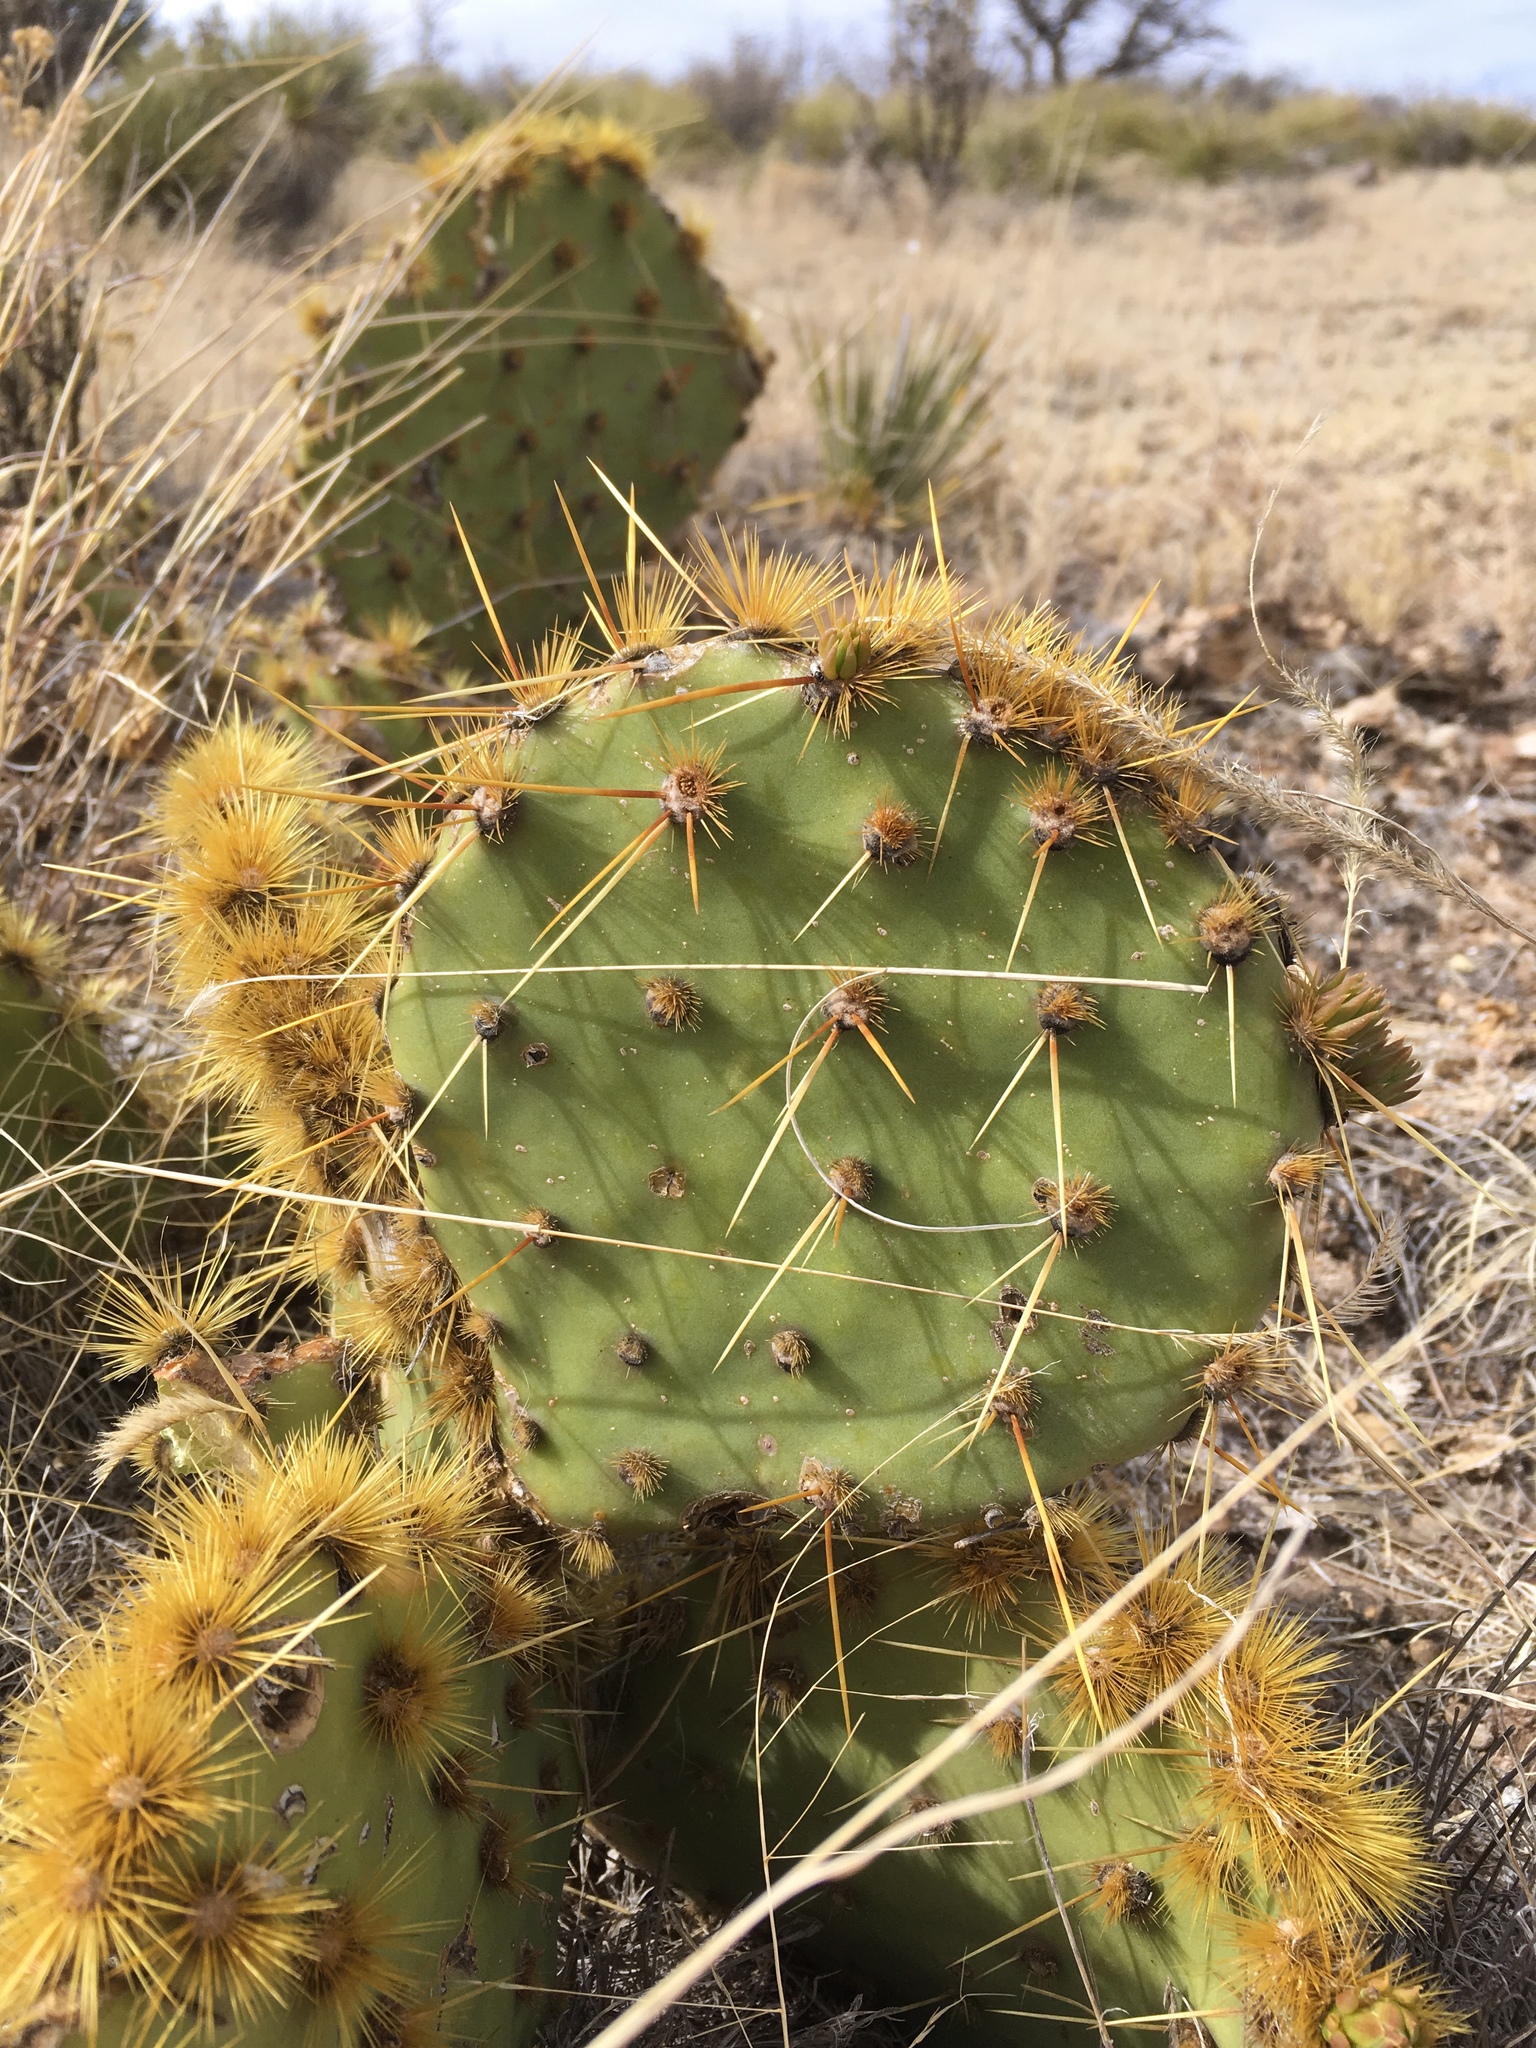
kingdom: Plantae
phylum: Tracheophyta
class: Magnoliopsida
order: Caryophyllales
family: Cactaceae
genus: Opuntia
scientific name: Opuntia phaeacantha
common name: New mexico prickly-pear
